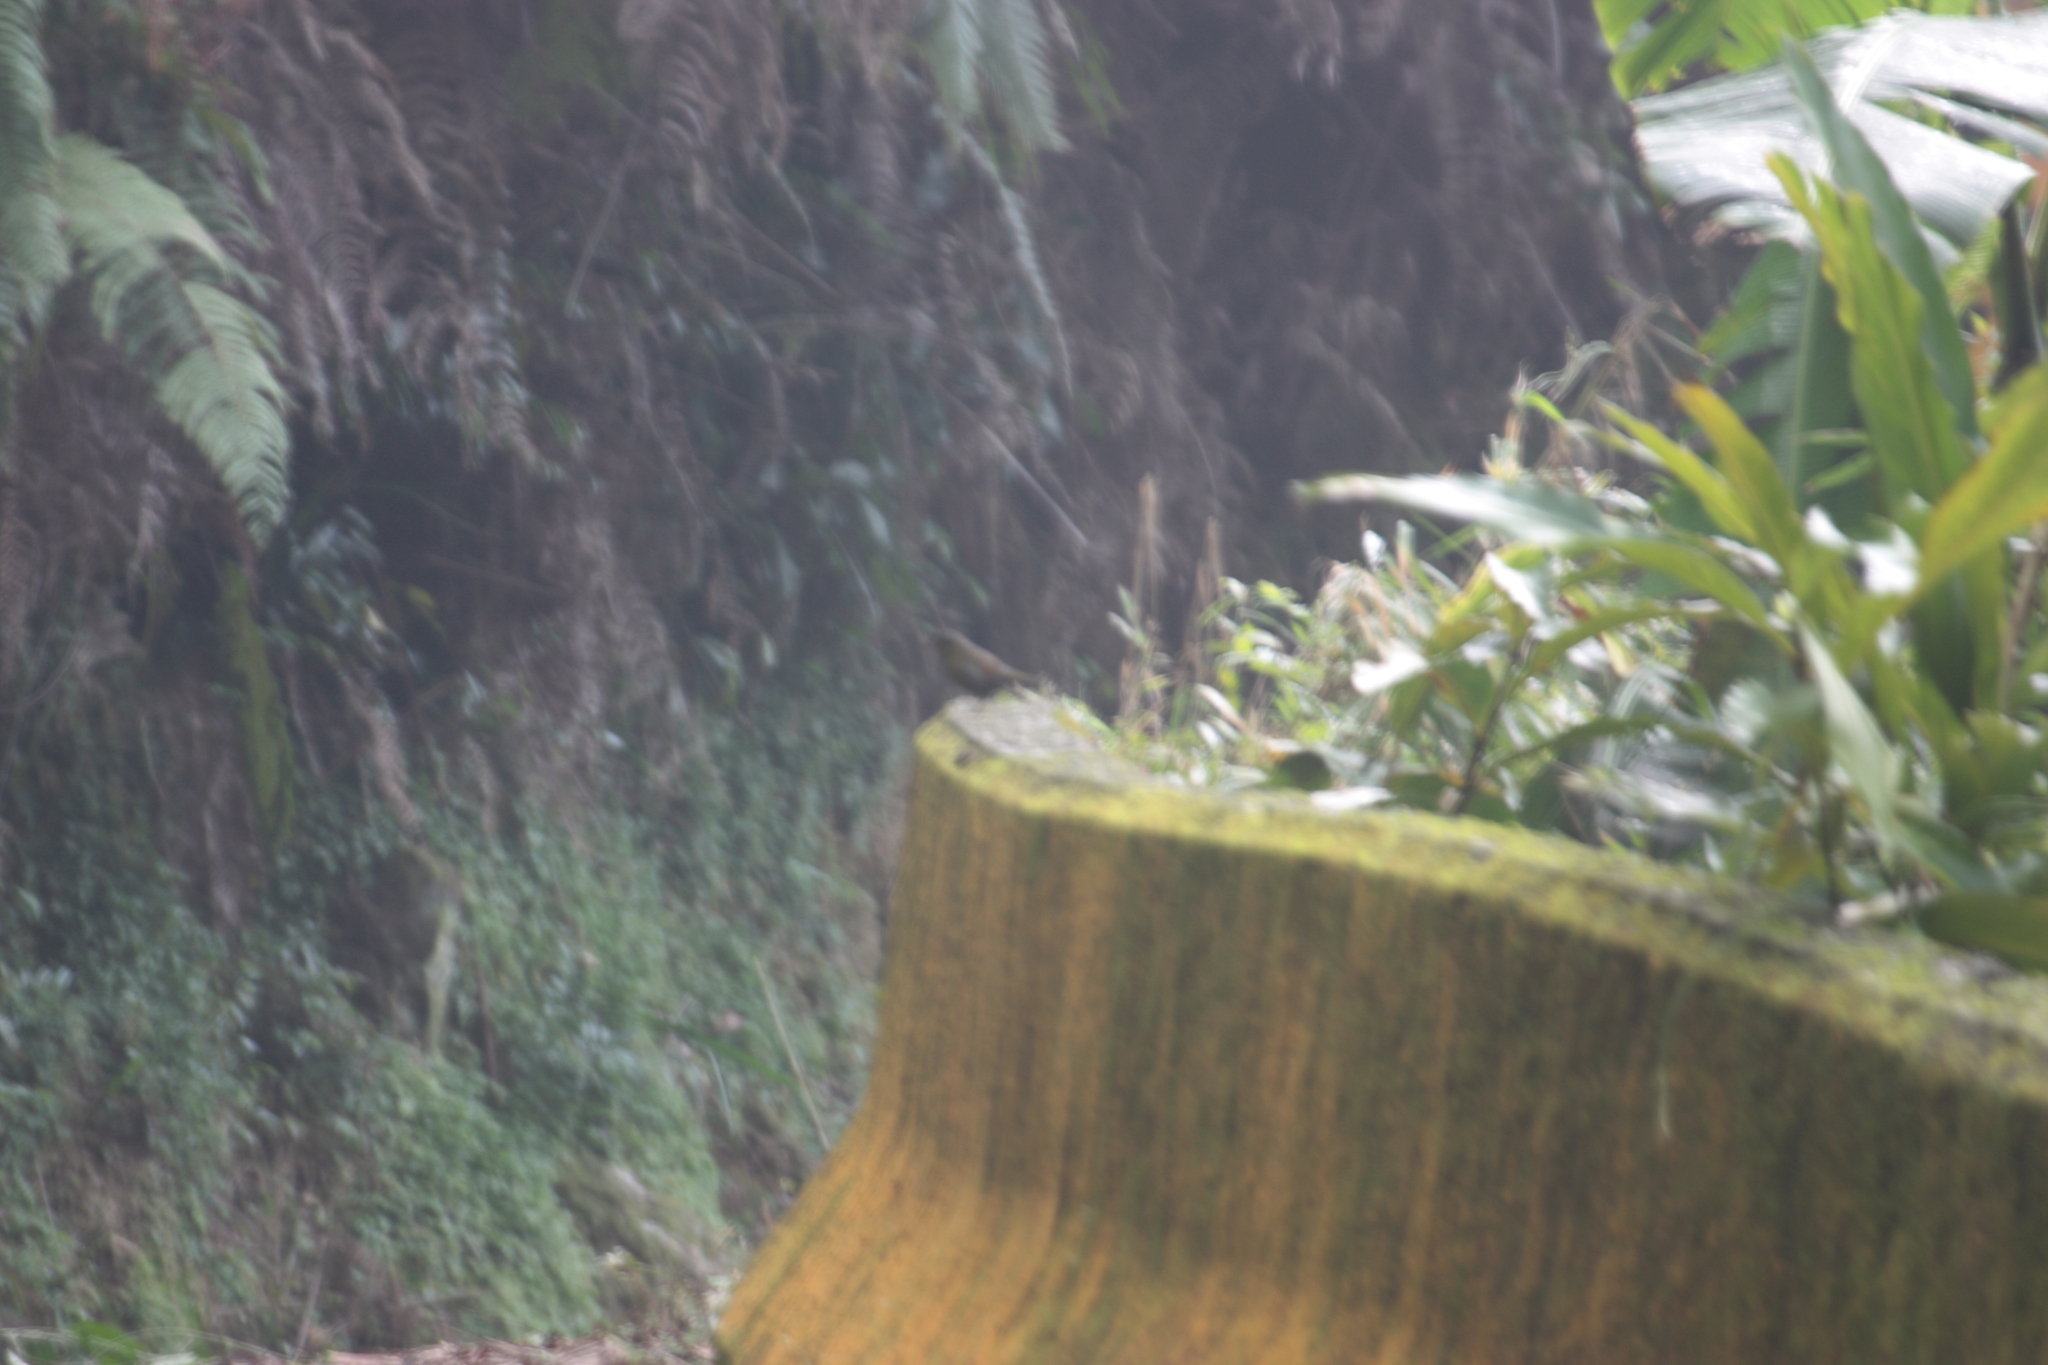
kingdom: Animalia
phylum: Chordata
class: Aves
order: Passeriformes
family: Leiothrichidae
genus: Liocichla
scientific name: Liocichla steerii
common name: Steere's liocichla
